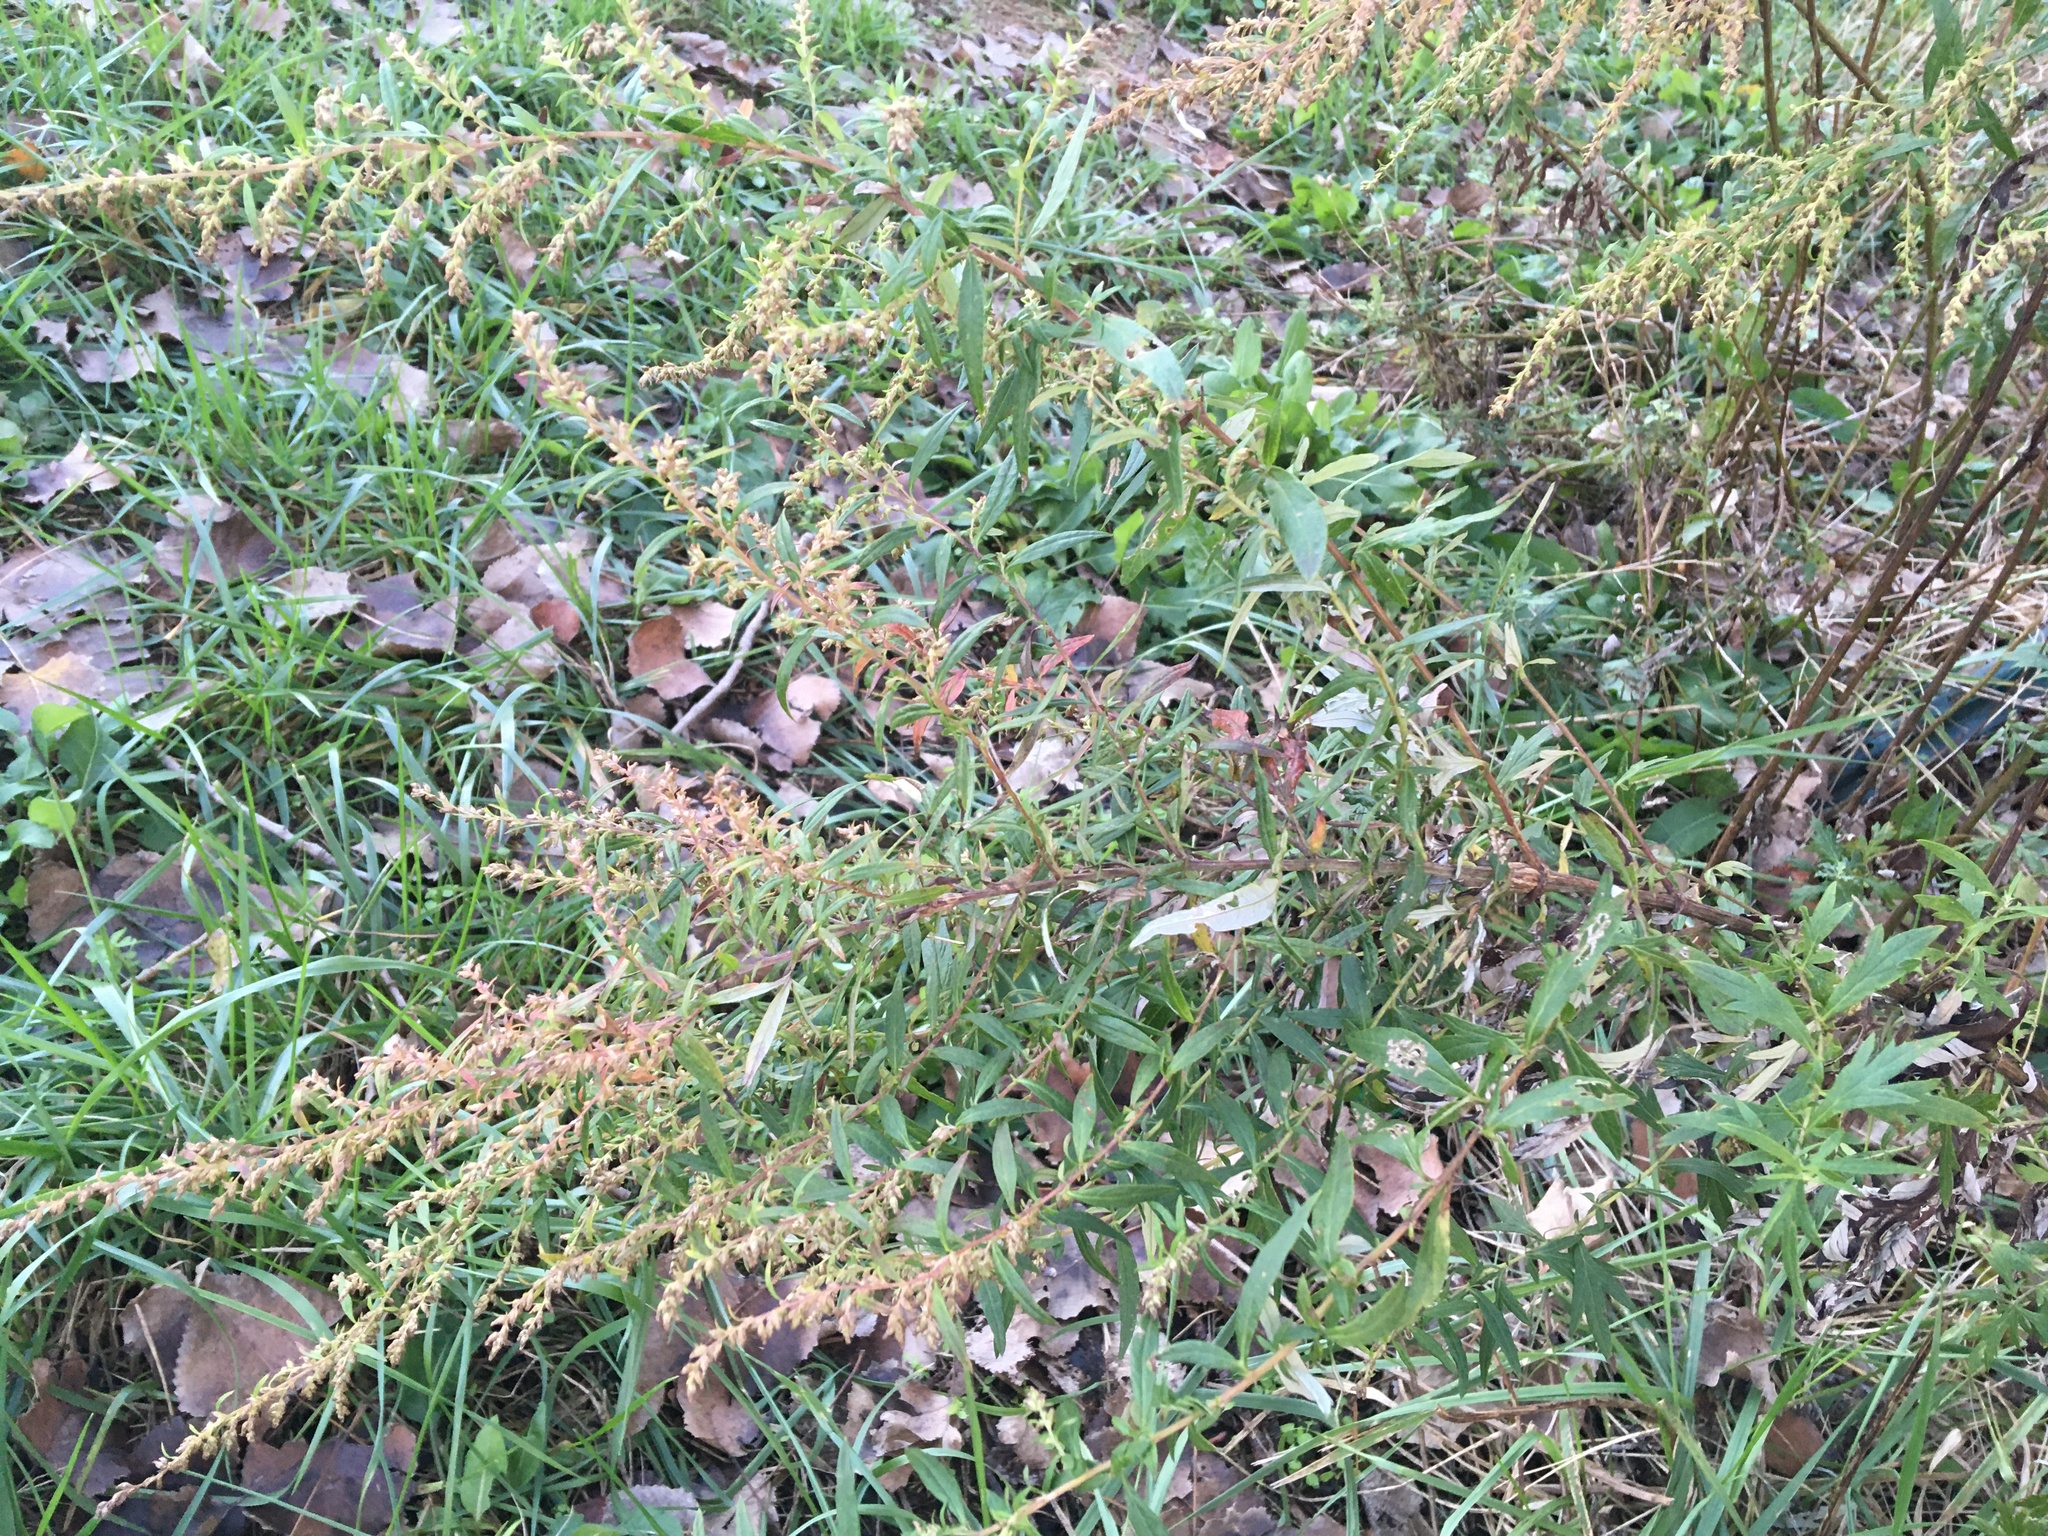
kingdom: Plantae
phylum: Tracheophyta
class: Magnoliopsida
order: Asterales
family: Asteraceae
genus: Artemisia
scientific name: Artemisia vulgaris
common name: Mugwort
